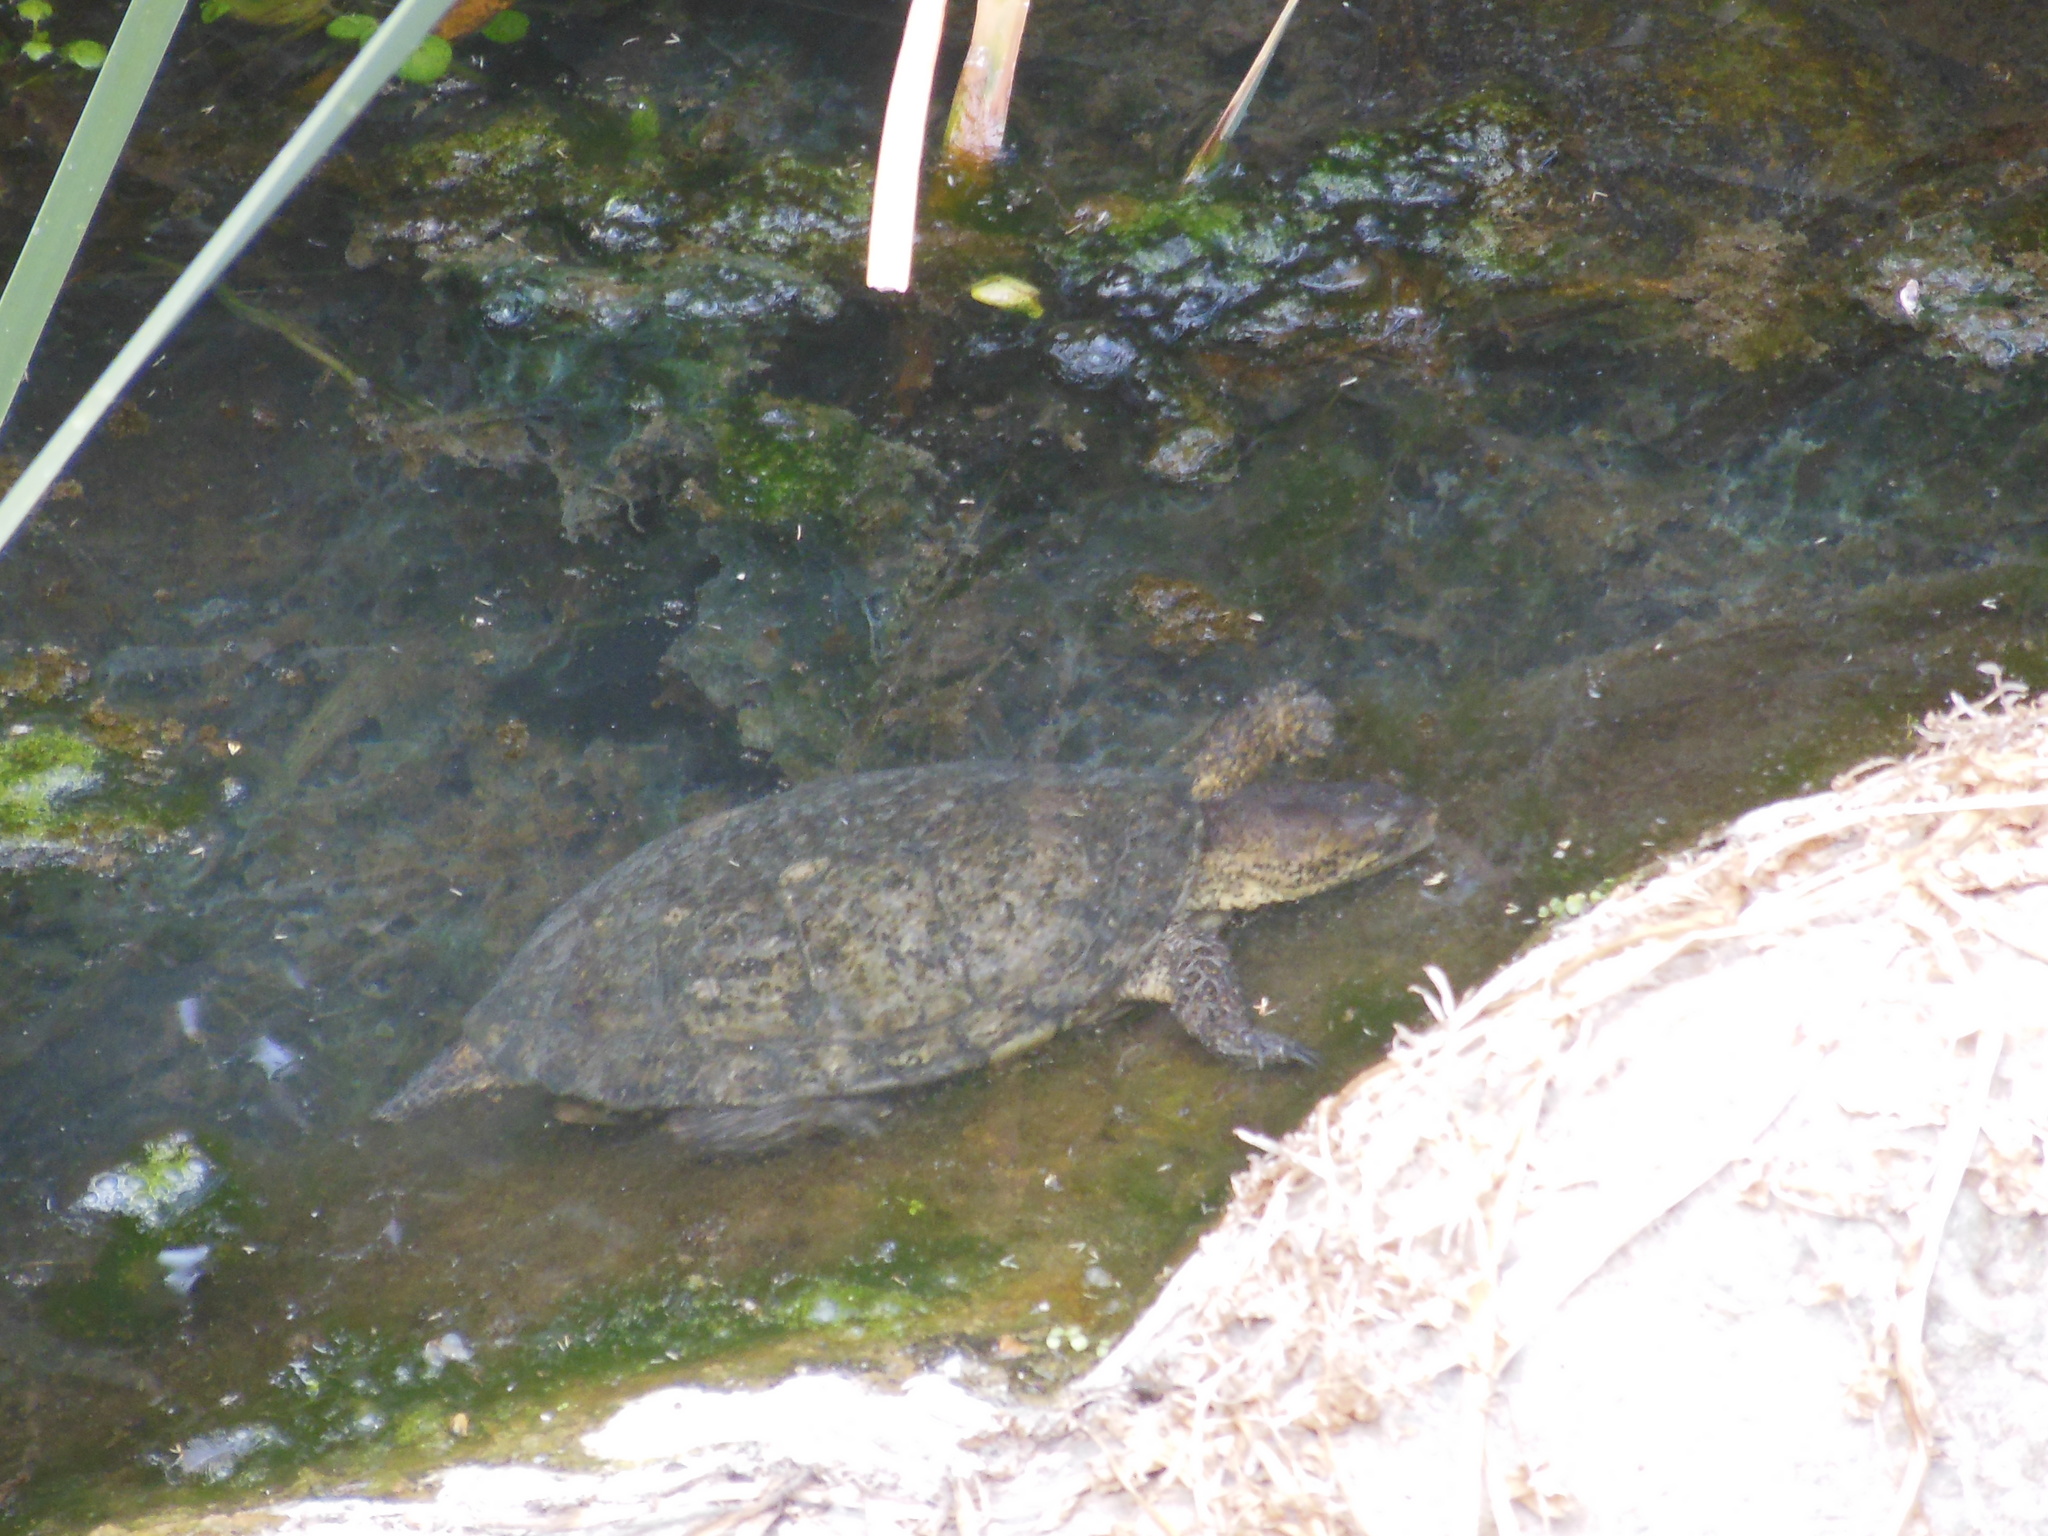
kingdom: Animalia
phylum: Chordata
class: Testudines
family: Emydidae
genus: Actinemys
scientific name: Actinemys marmorata
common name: Western pond turtle
